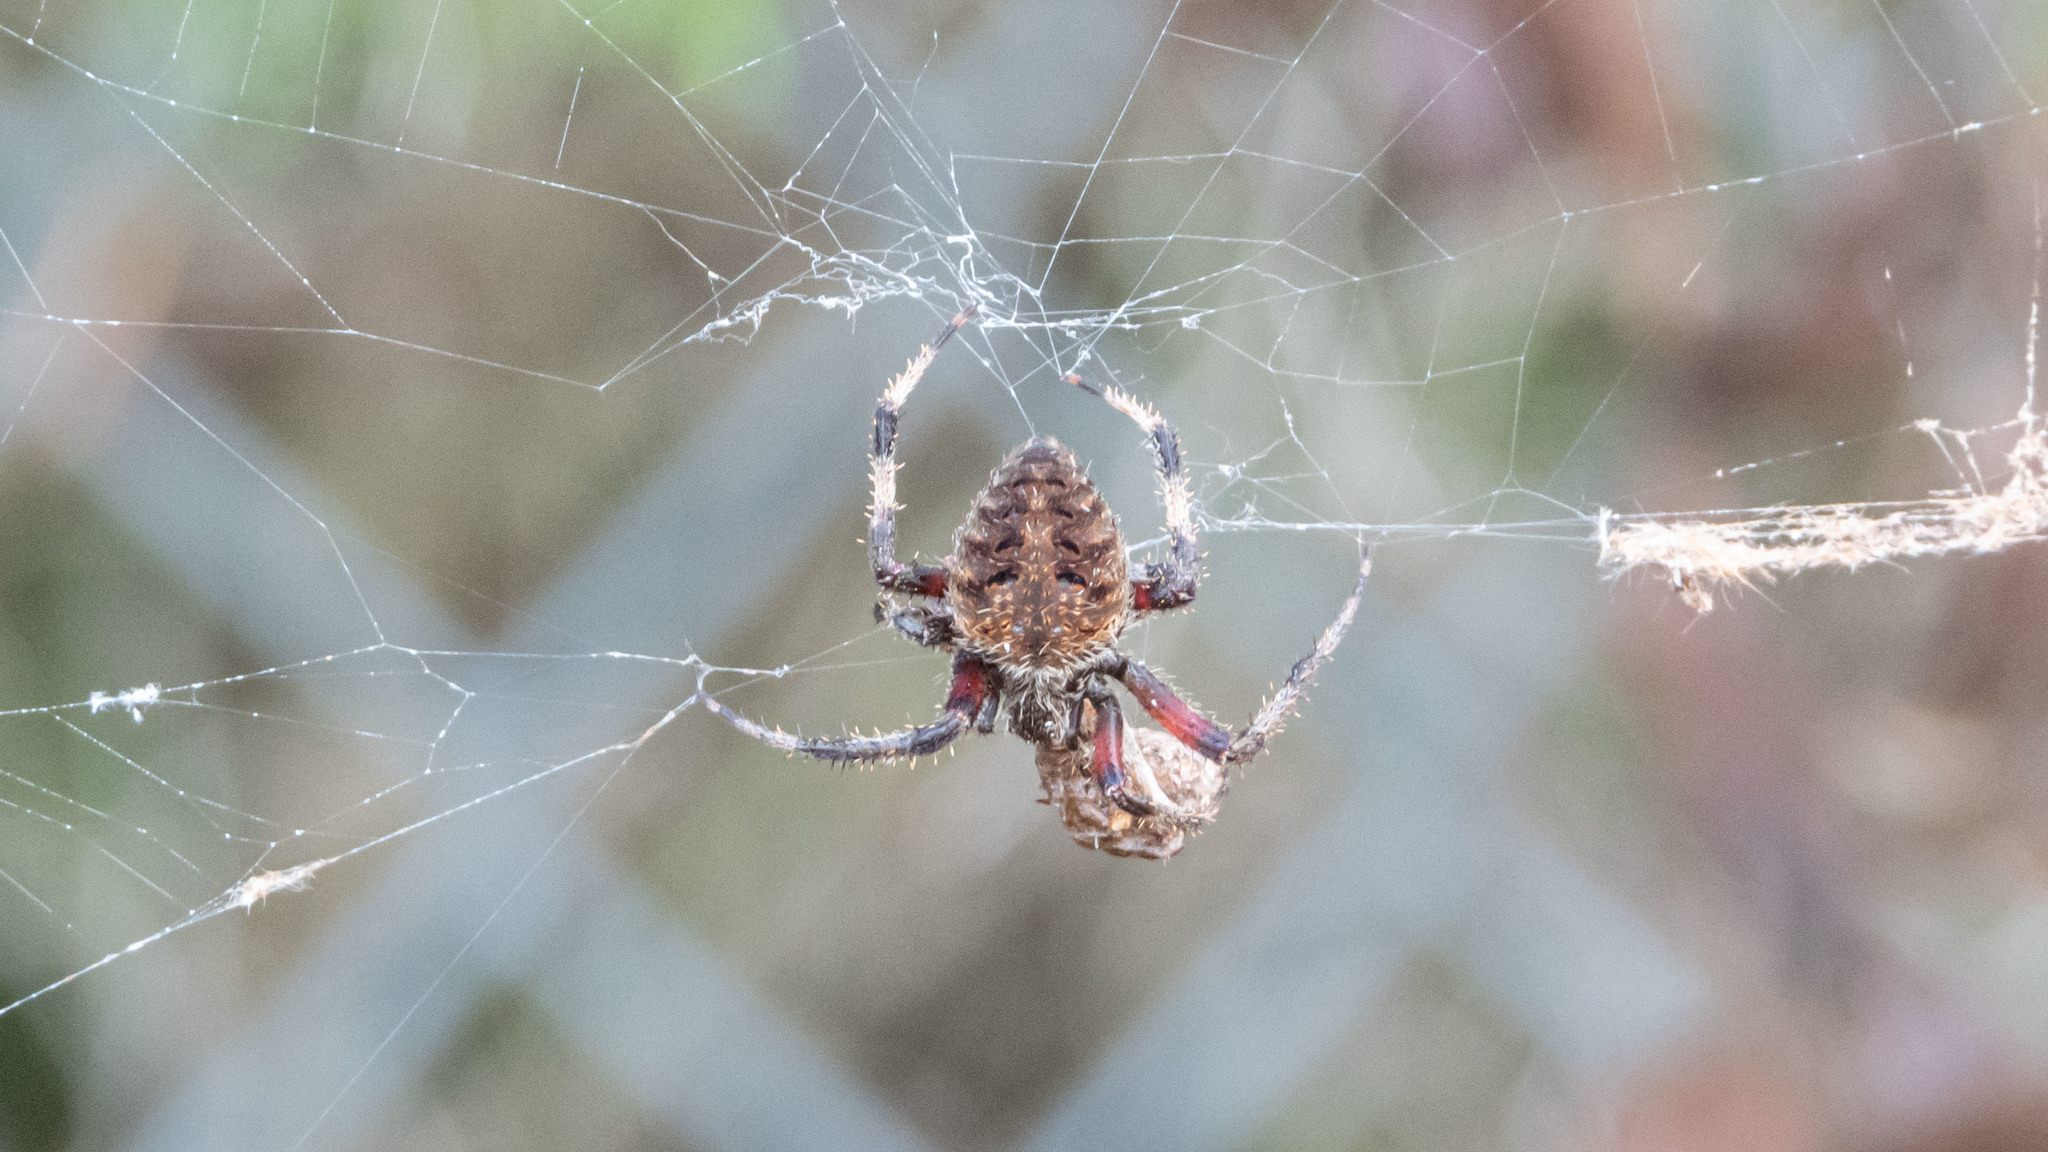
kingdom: Animalia
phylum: Arthropoda
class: Arachnida
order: Araneae
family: Araneidae
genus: Neoscona
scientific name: Neoscona crucifera
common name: Spotted orbweaver
